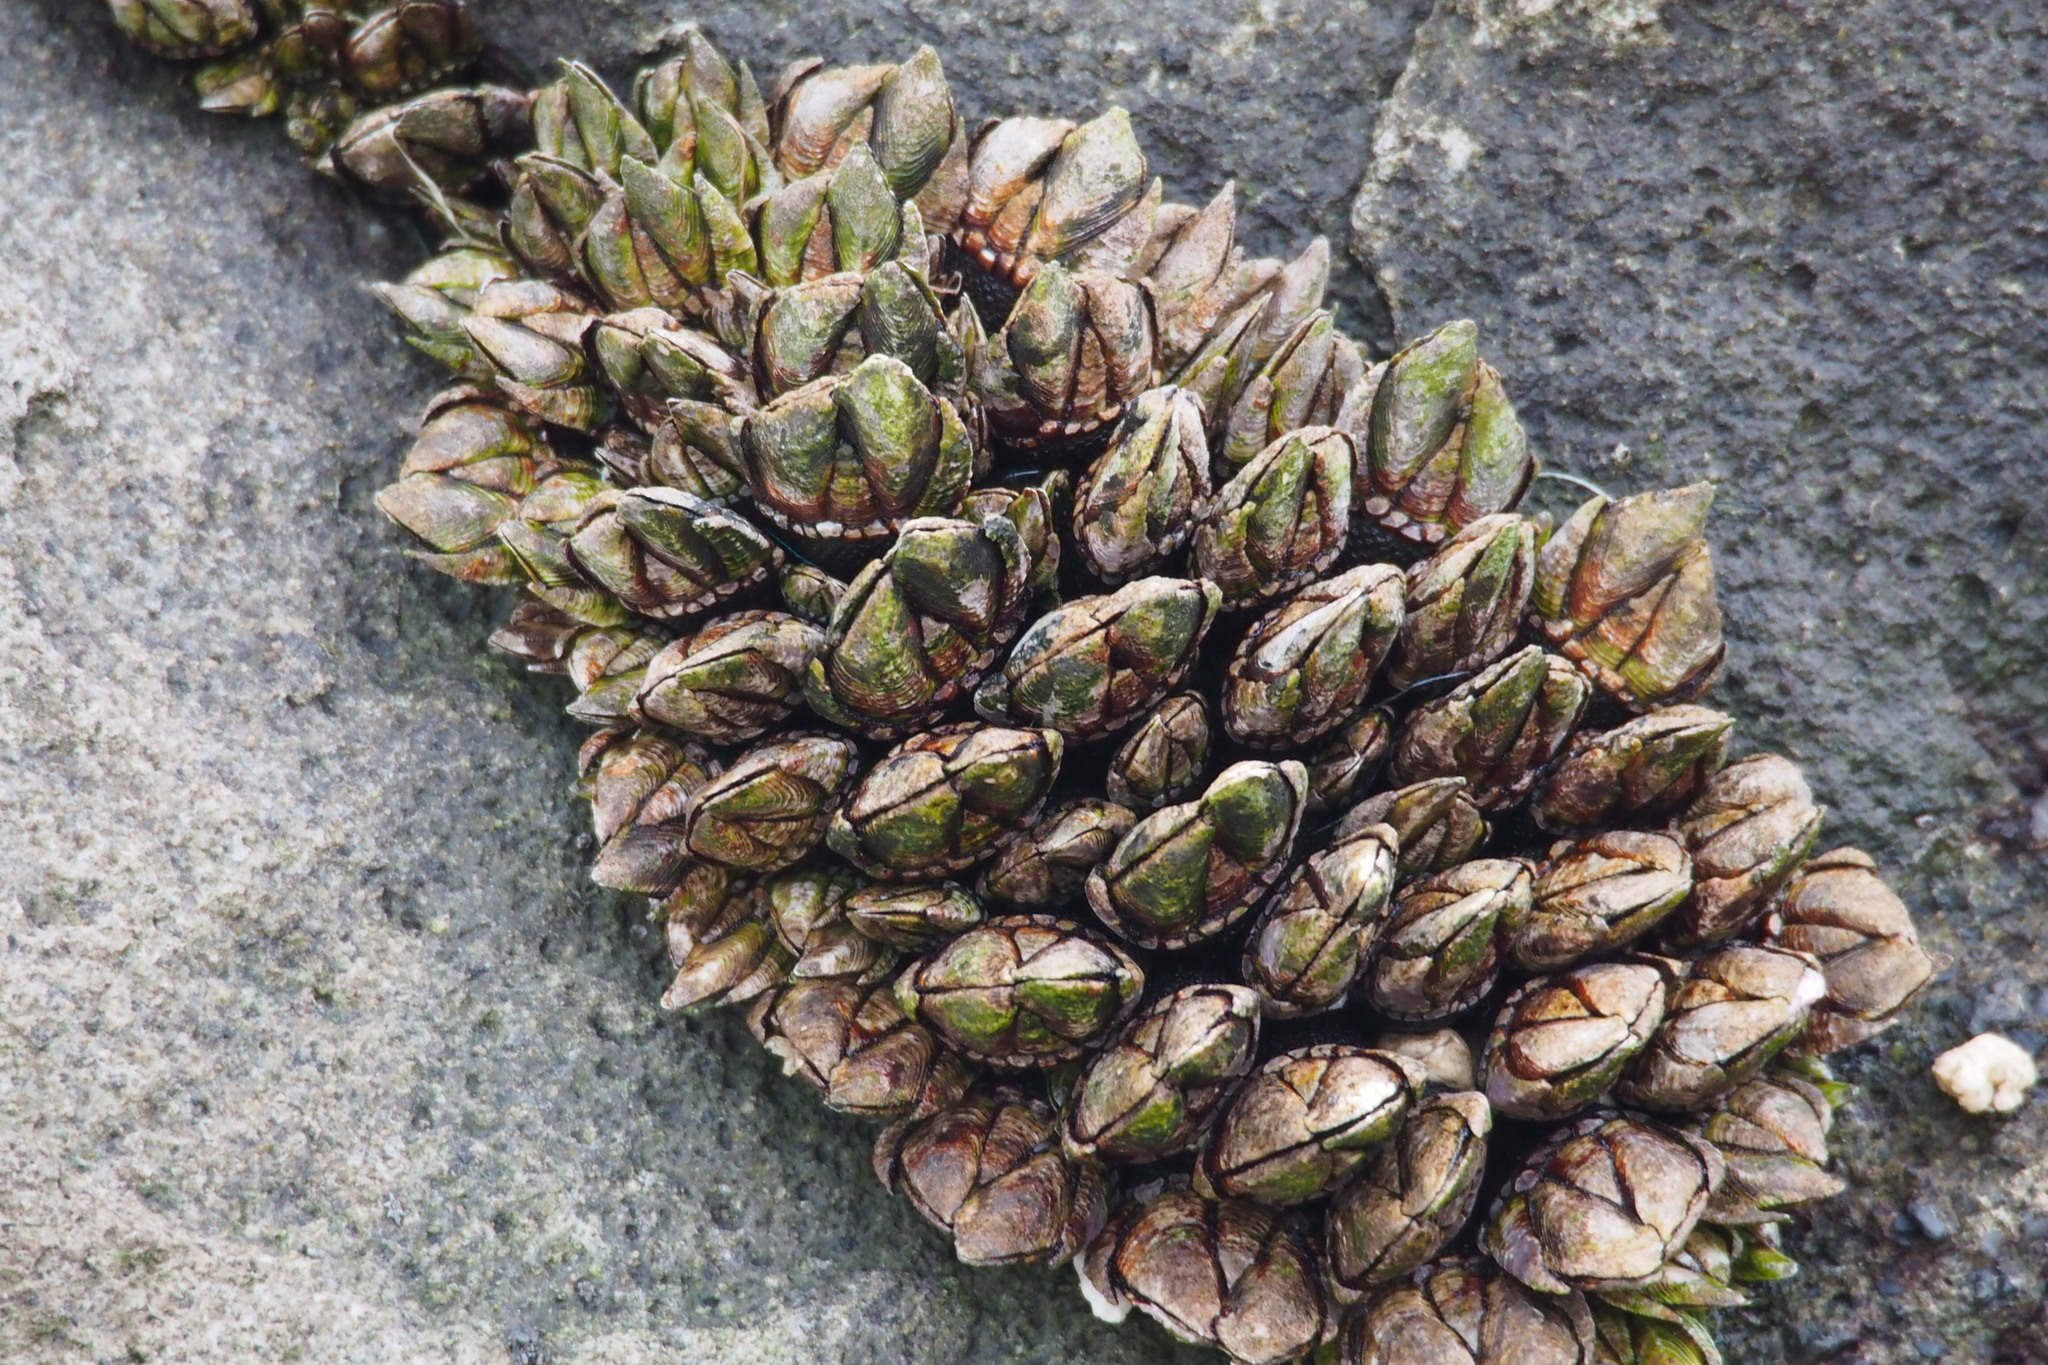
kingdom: Animalia
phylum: Arthropoda
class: Maxillopoda
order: Pedunculata
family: Pollicipedidae
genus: Capitulum
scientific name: Capitulum mitella
